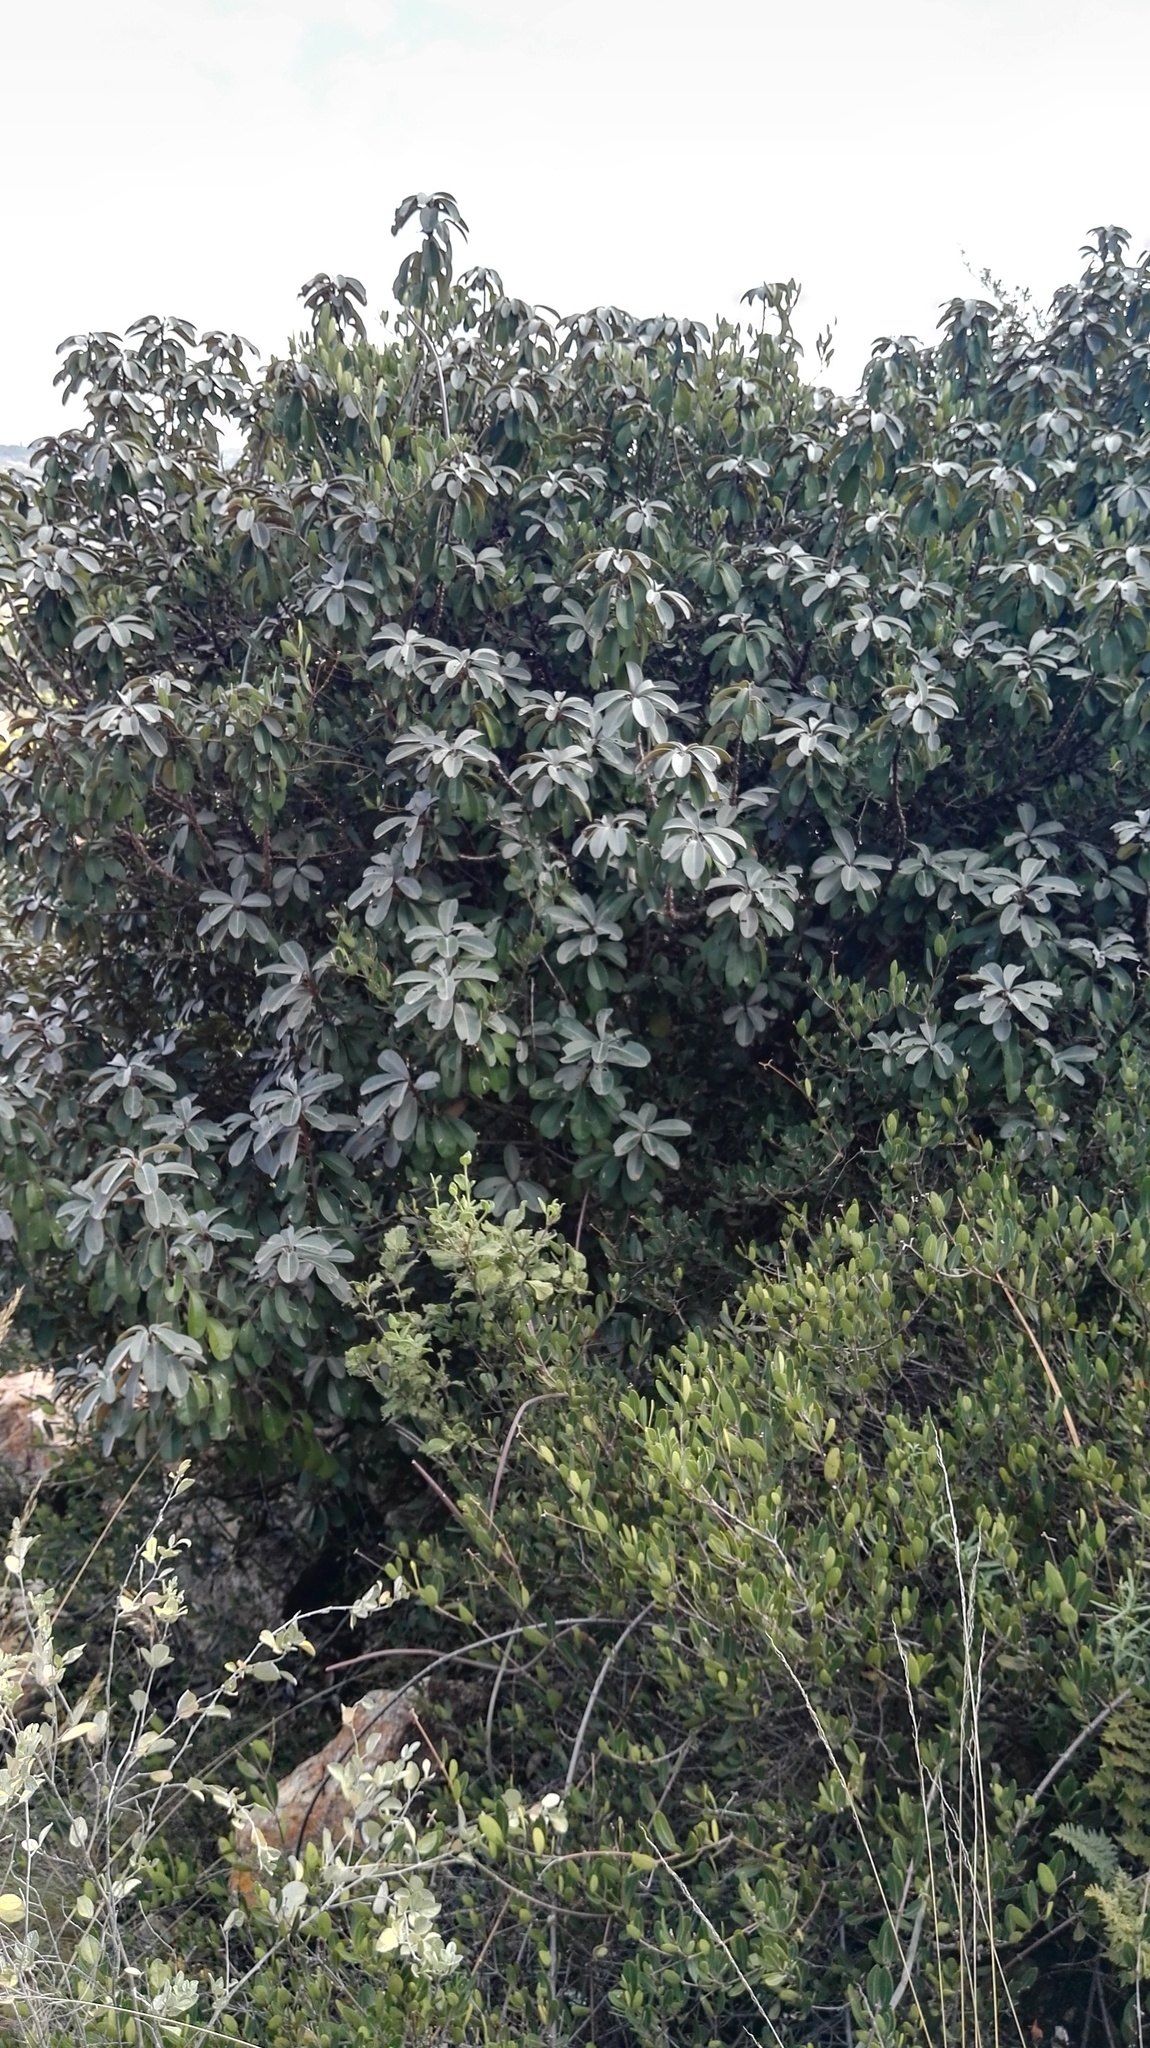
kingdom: Plantae
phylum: Tracheophyta
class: Magnoliopsida
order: Ericales
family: Sapotaceae
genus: Englerophytum
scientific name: Englerophytum magalismontanum
